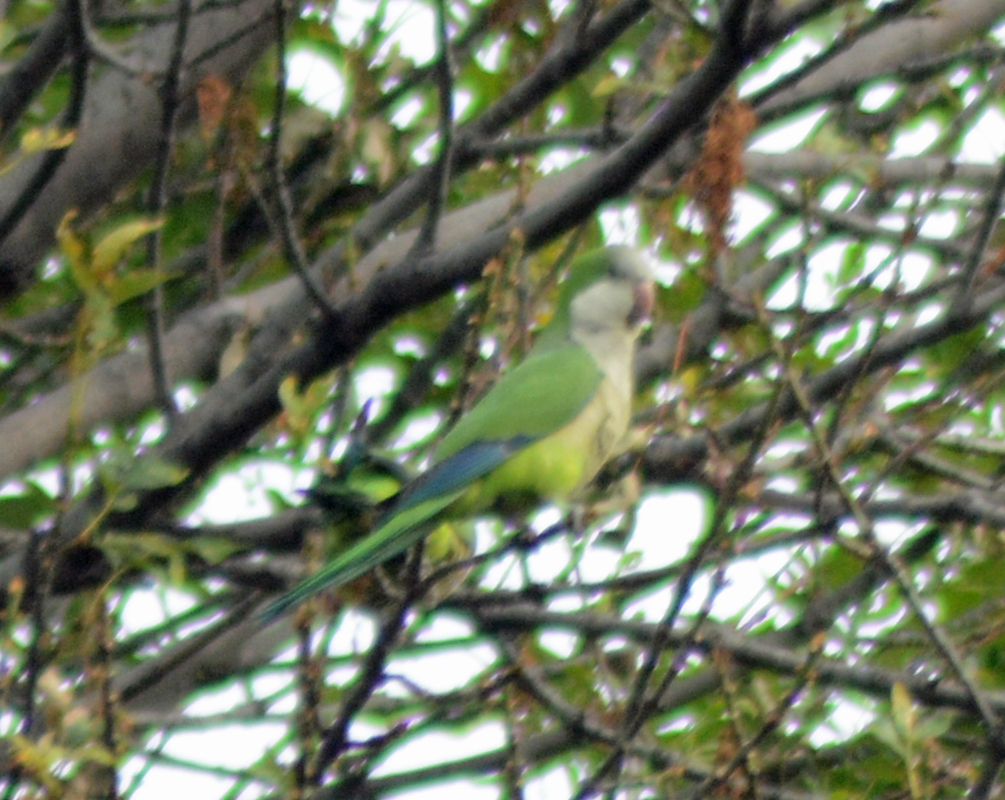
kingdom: Animalia
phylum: Chordata
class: Aves
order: Psittaciformes
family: Psittacidae
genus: Myiopsitta
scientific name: Myiopsitta monachus
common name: Monk parakeet
